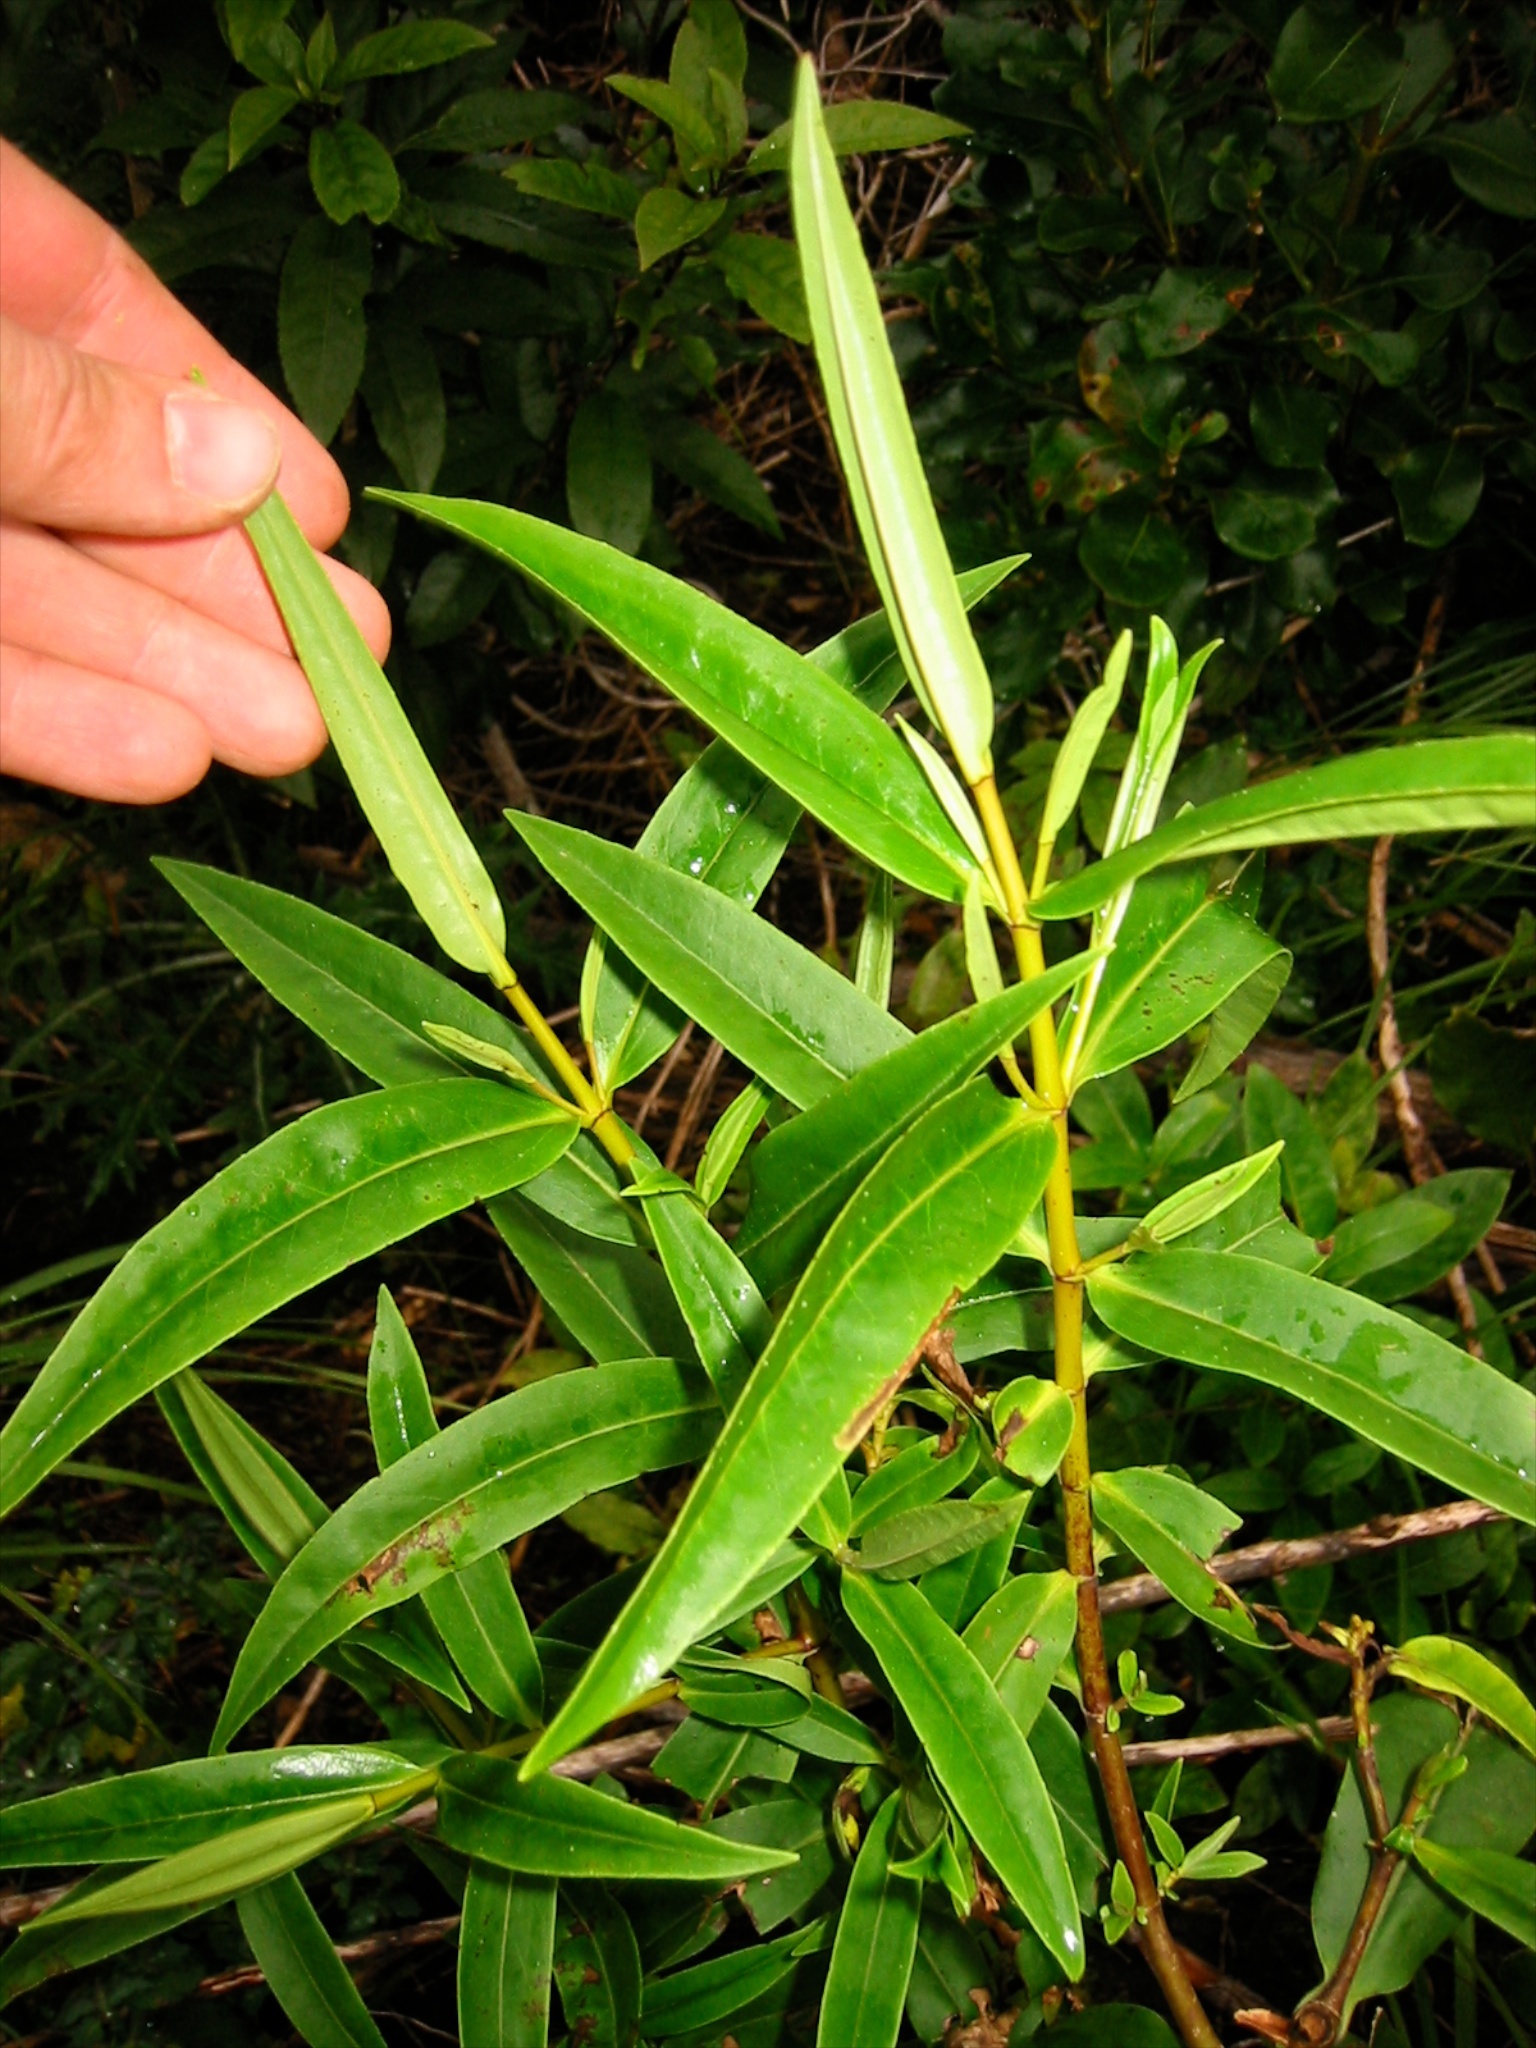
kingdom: Plantae
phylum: Tracheophyta
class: Magnoliopsida
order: Lamiales
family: Plantaginaceae
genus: Veronica
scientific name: Veronica stricta
